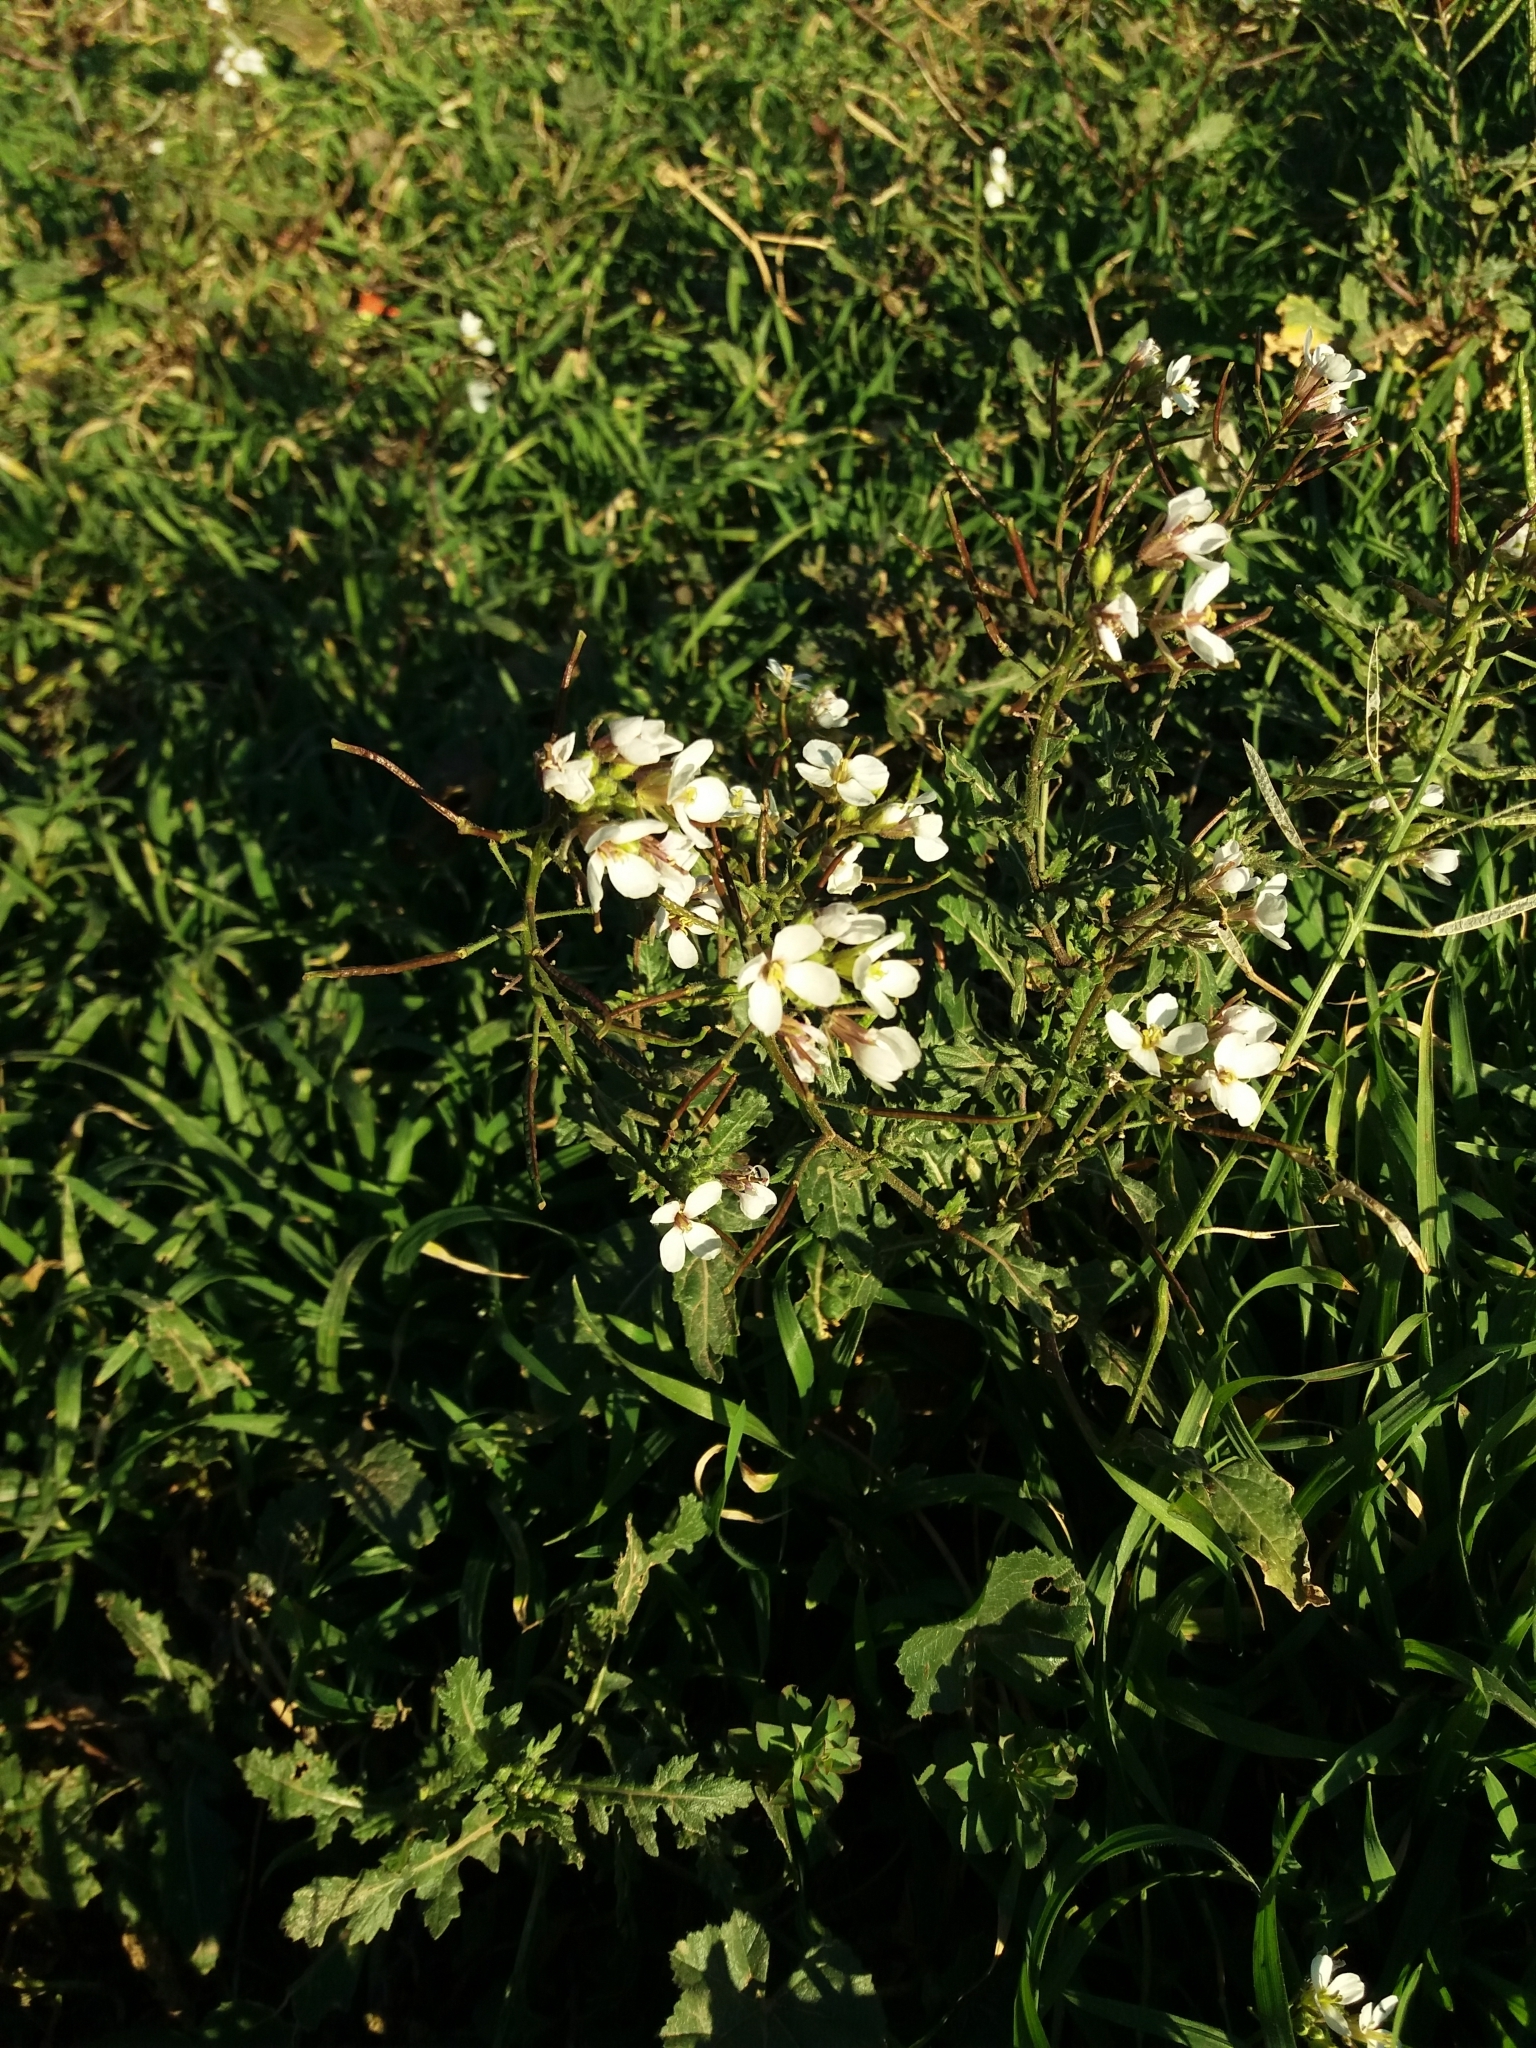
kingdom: Plantae
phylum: Tracheophyta
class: Magnoliopsida
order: Brassicales
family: Brassicaceae
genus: Diplotaxis
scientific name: Diplotaxis erucoides
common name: White rocket
